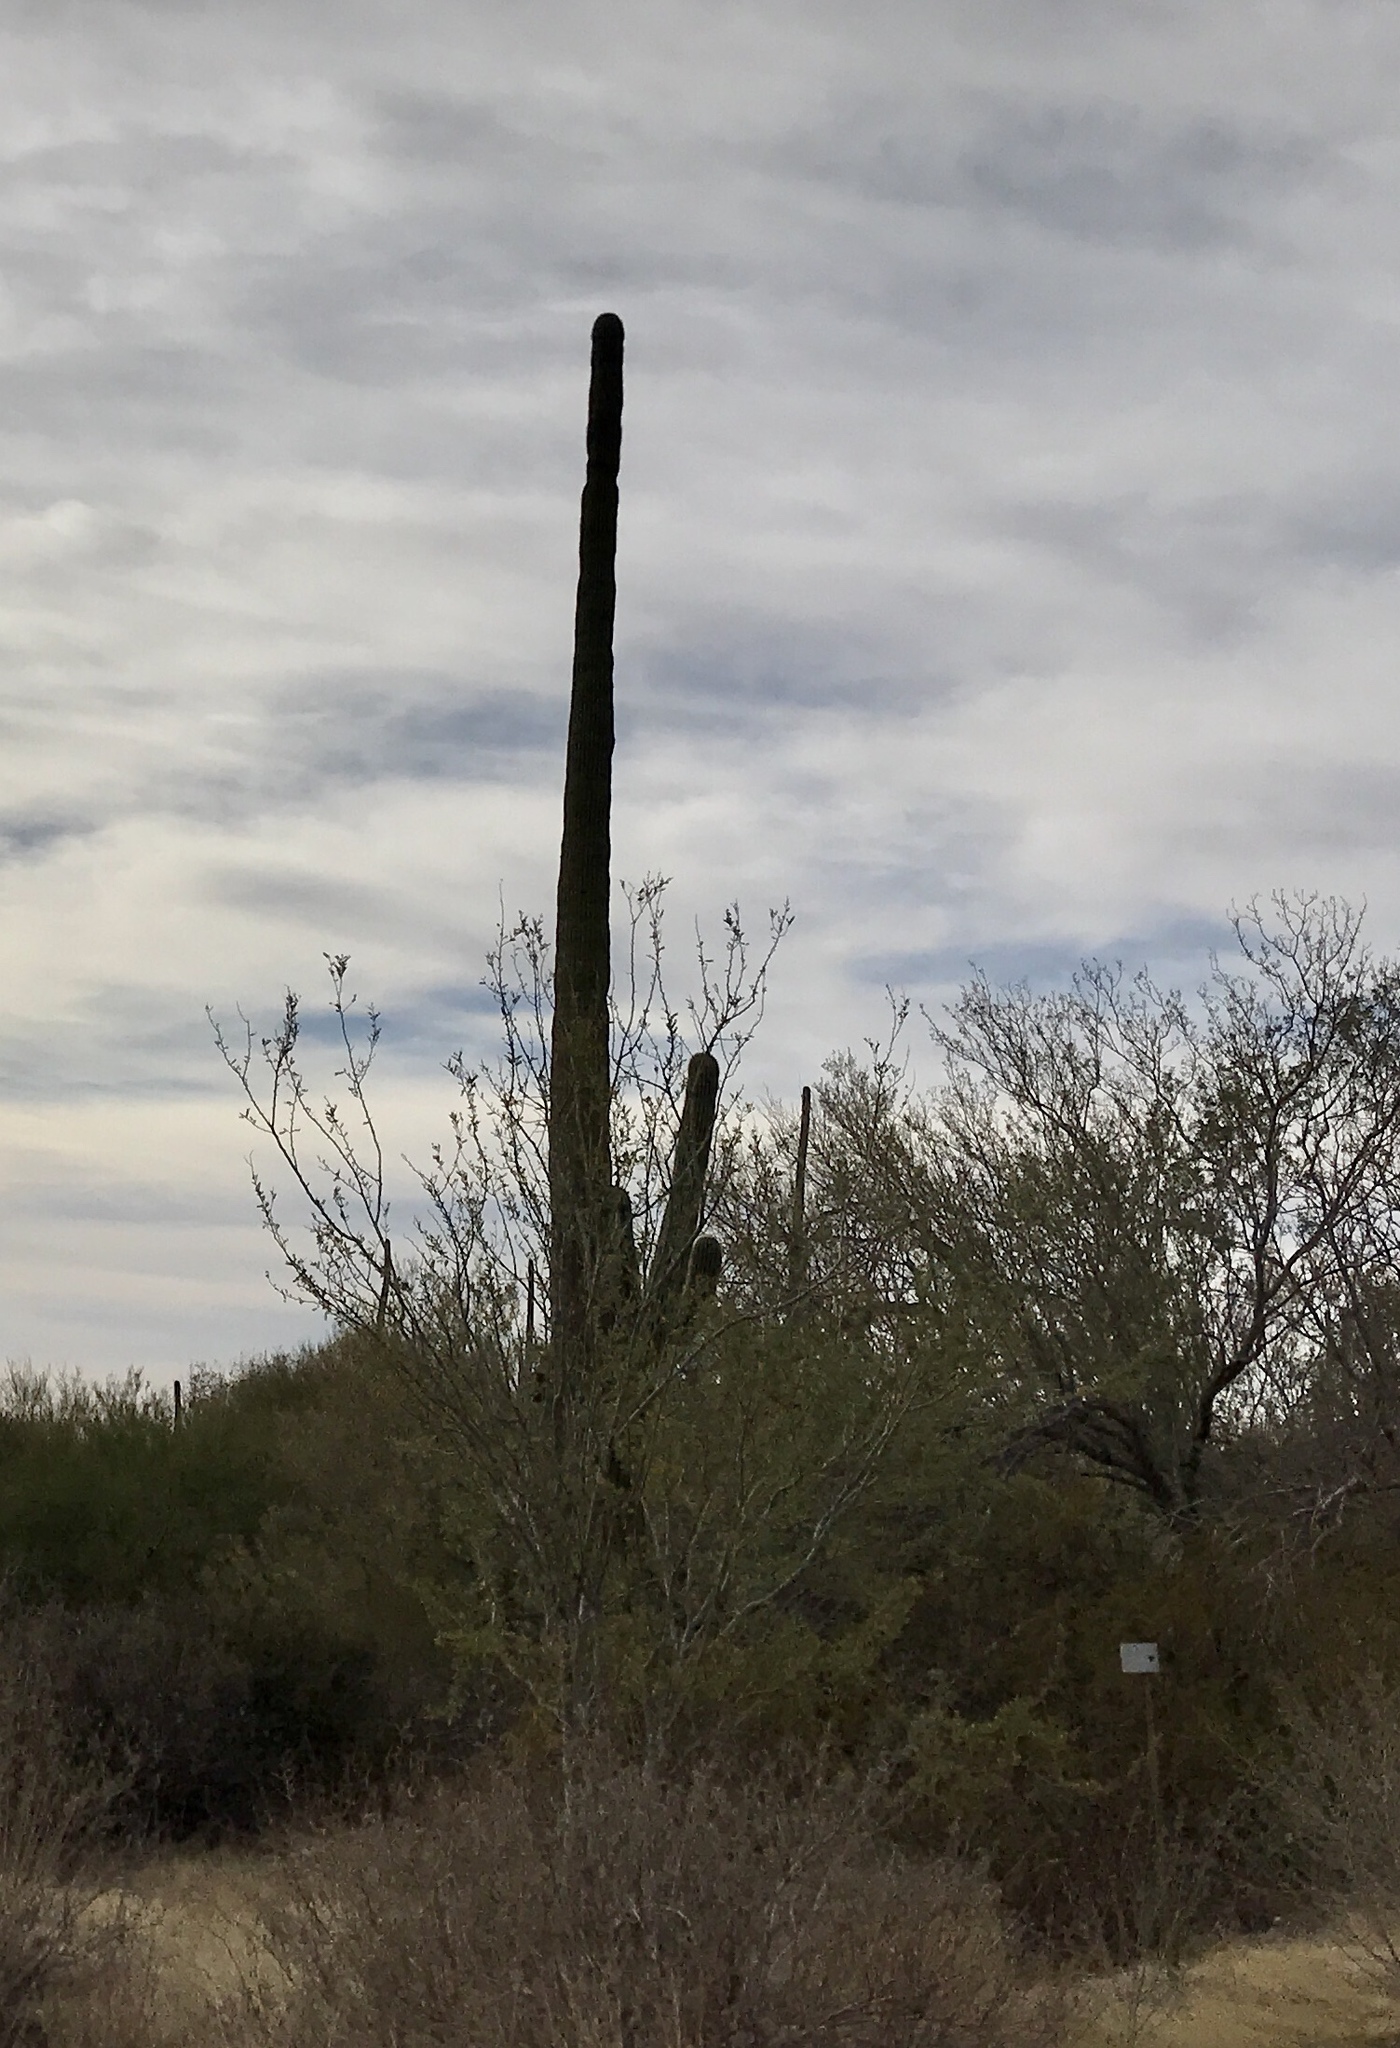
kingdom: Plantae
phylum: Tracheophyta
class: Magnoliopsida
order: Caryophyllales
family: Cactaceae
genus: Carnegiea
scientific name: Carnegiea gigantea
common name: Saguaro
